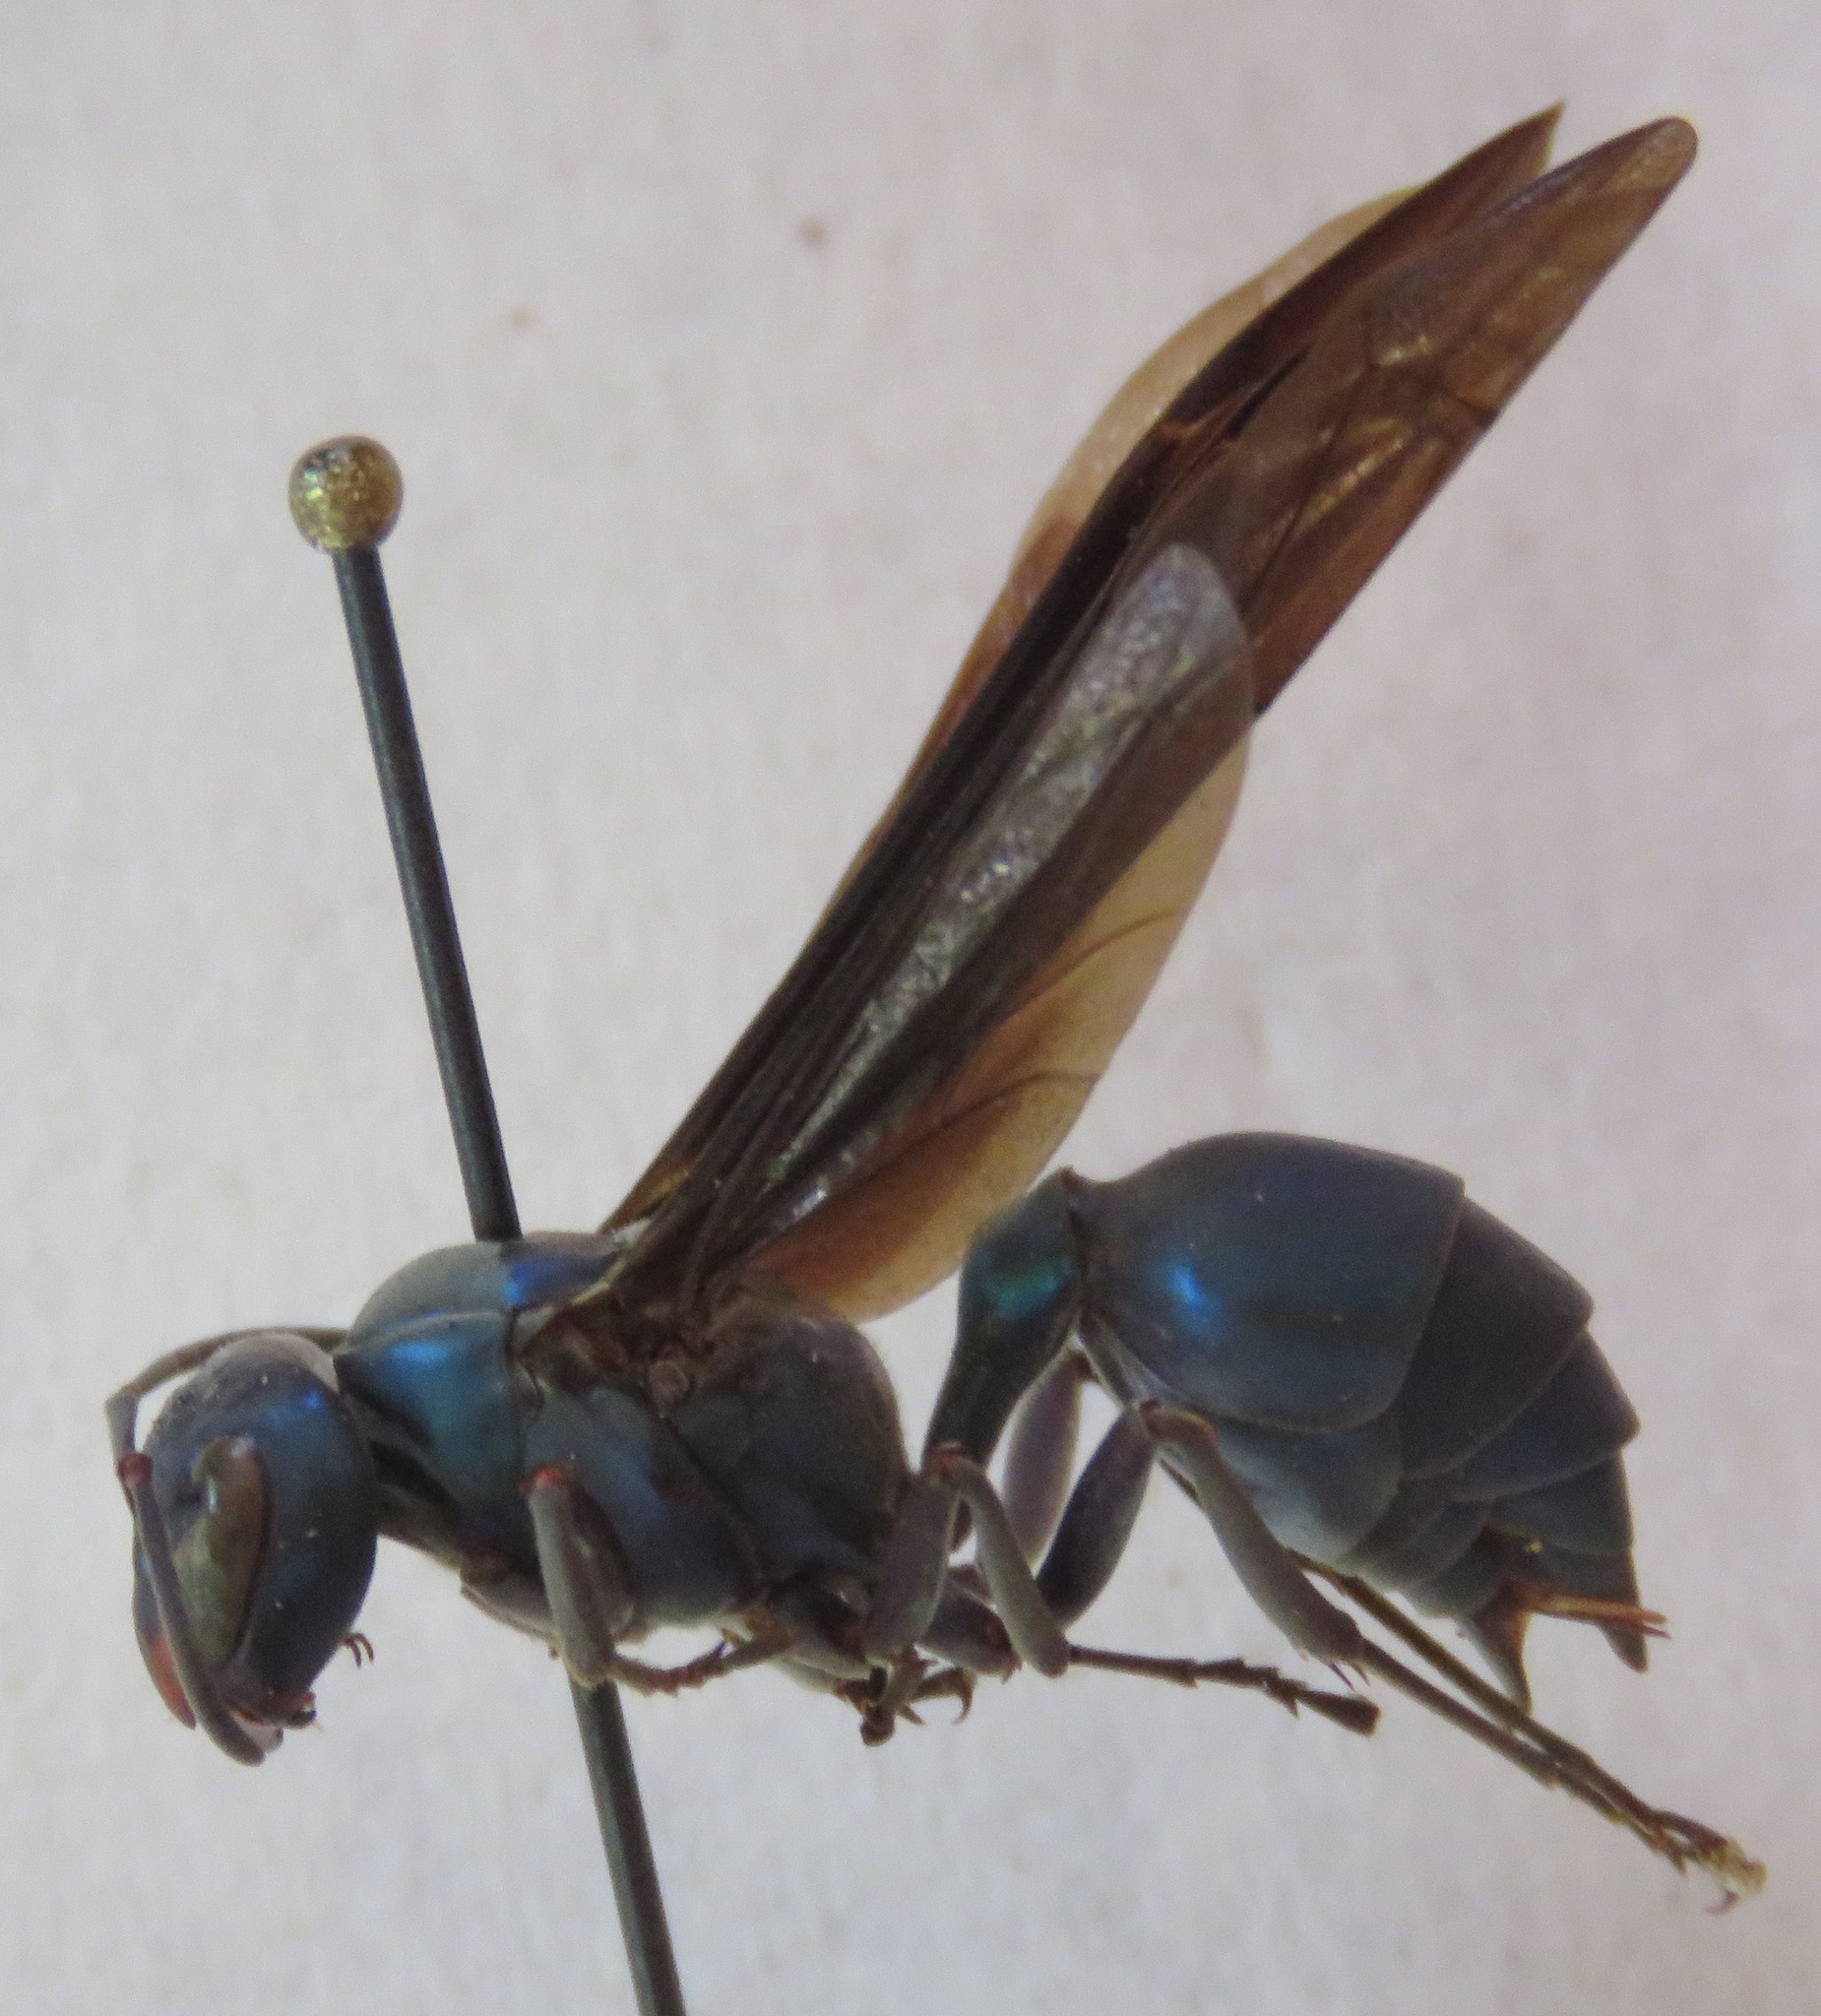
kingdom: Animalia
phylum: Arthropoda
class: Insecta
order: Hymenoptera
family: Vespidae
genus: Synoeca
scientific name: Synoeca septentrionalis
